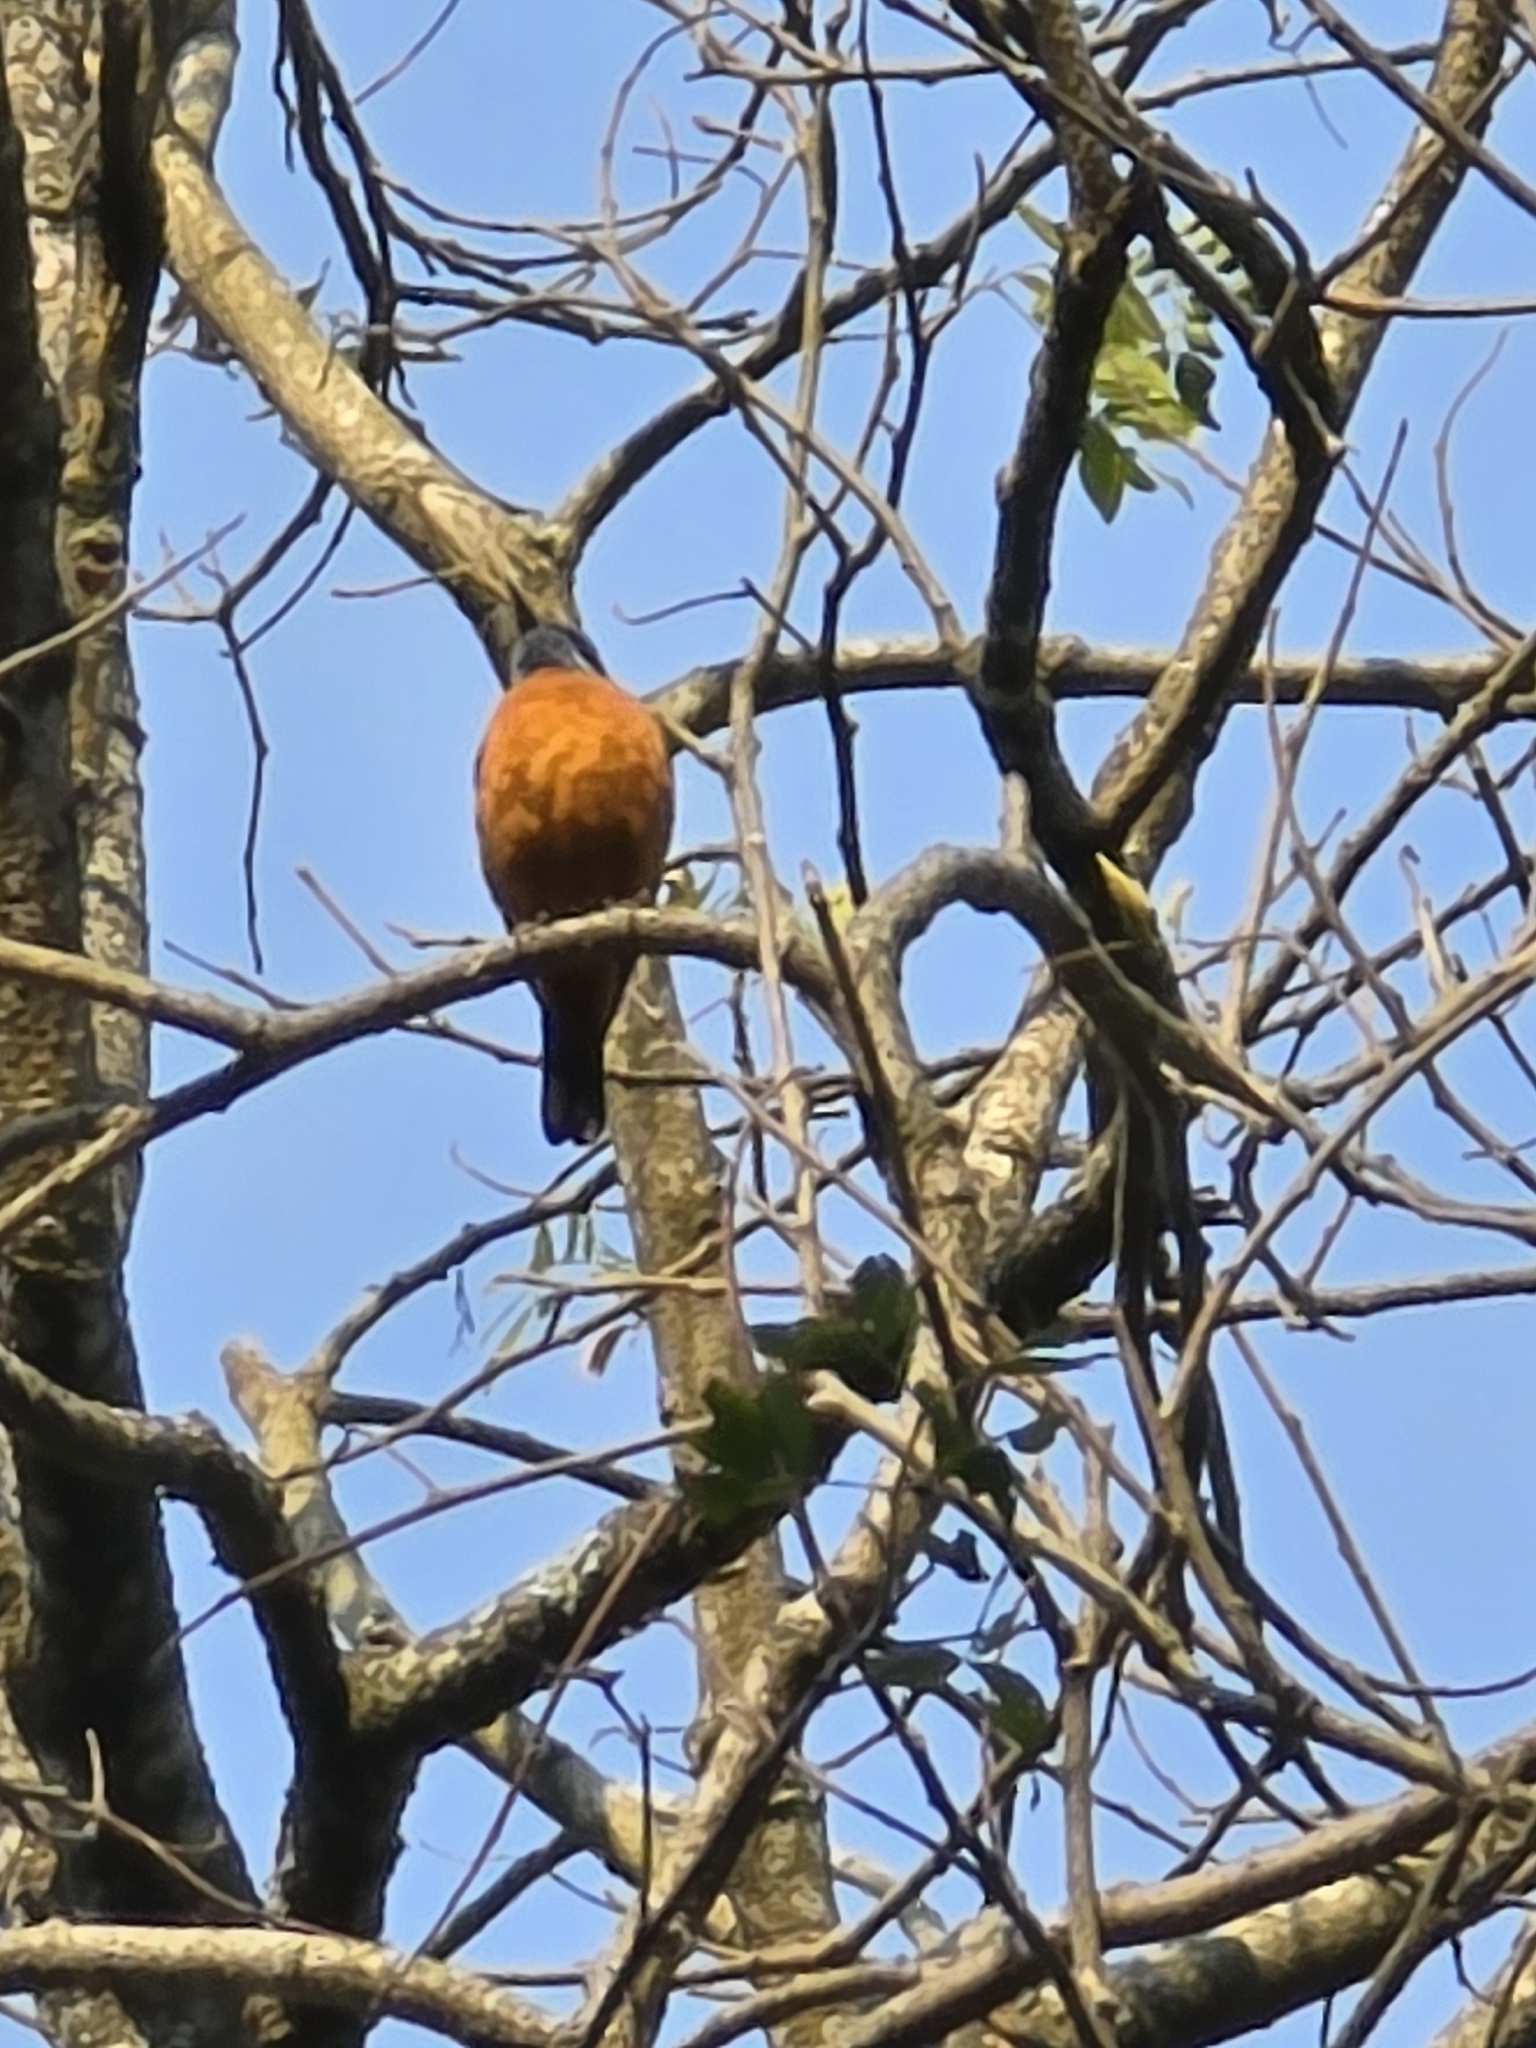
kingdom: Animalia
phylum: Chordata
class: Aves
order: Passeriformes
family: Muscicapidae
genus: Monticola
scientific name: Monticola cinclorhynchus
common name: Blue-capped rock thrush
